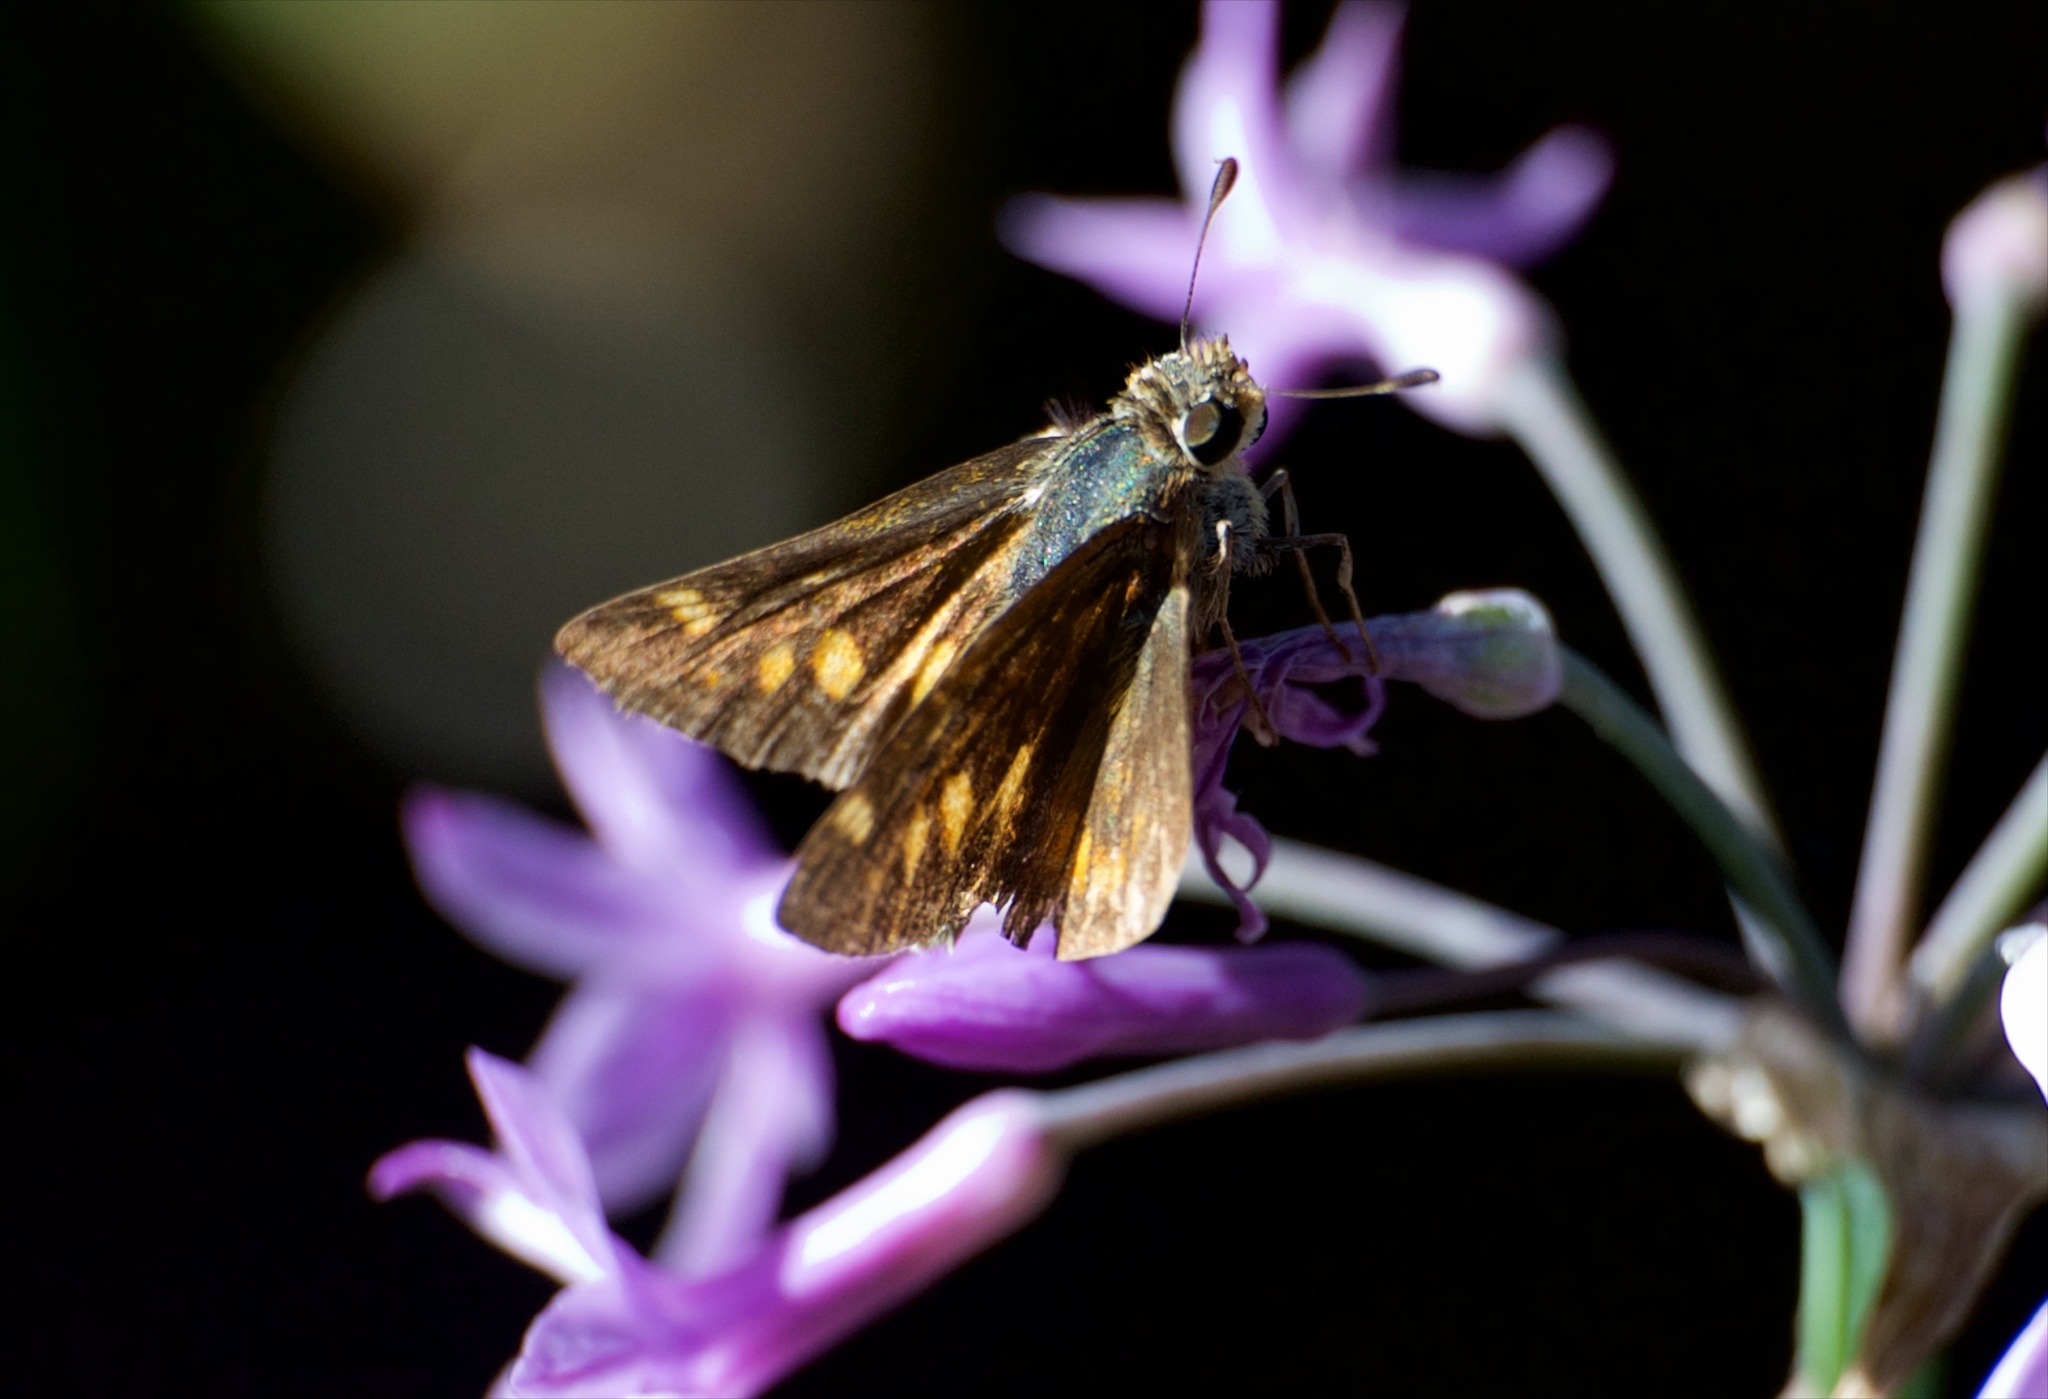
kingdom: Animalia
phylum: Arthropoda
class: Insecta
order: Lepidoptera
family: Hesperiidae
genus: Lon
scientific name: Lon melane
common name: Umber skipper
